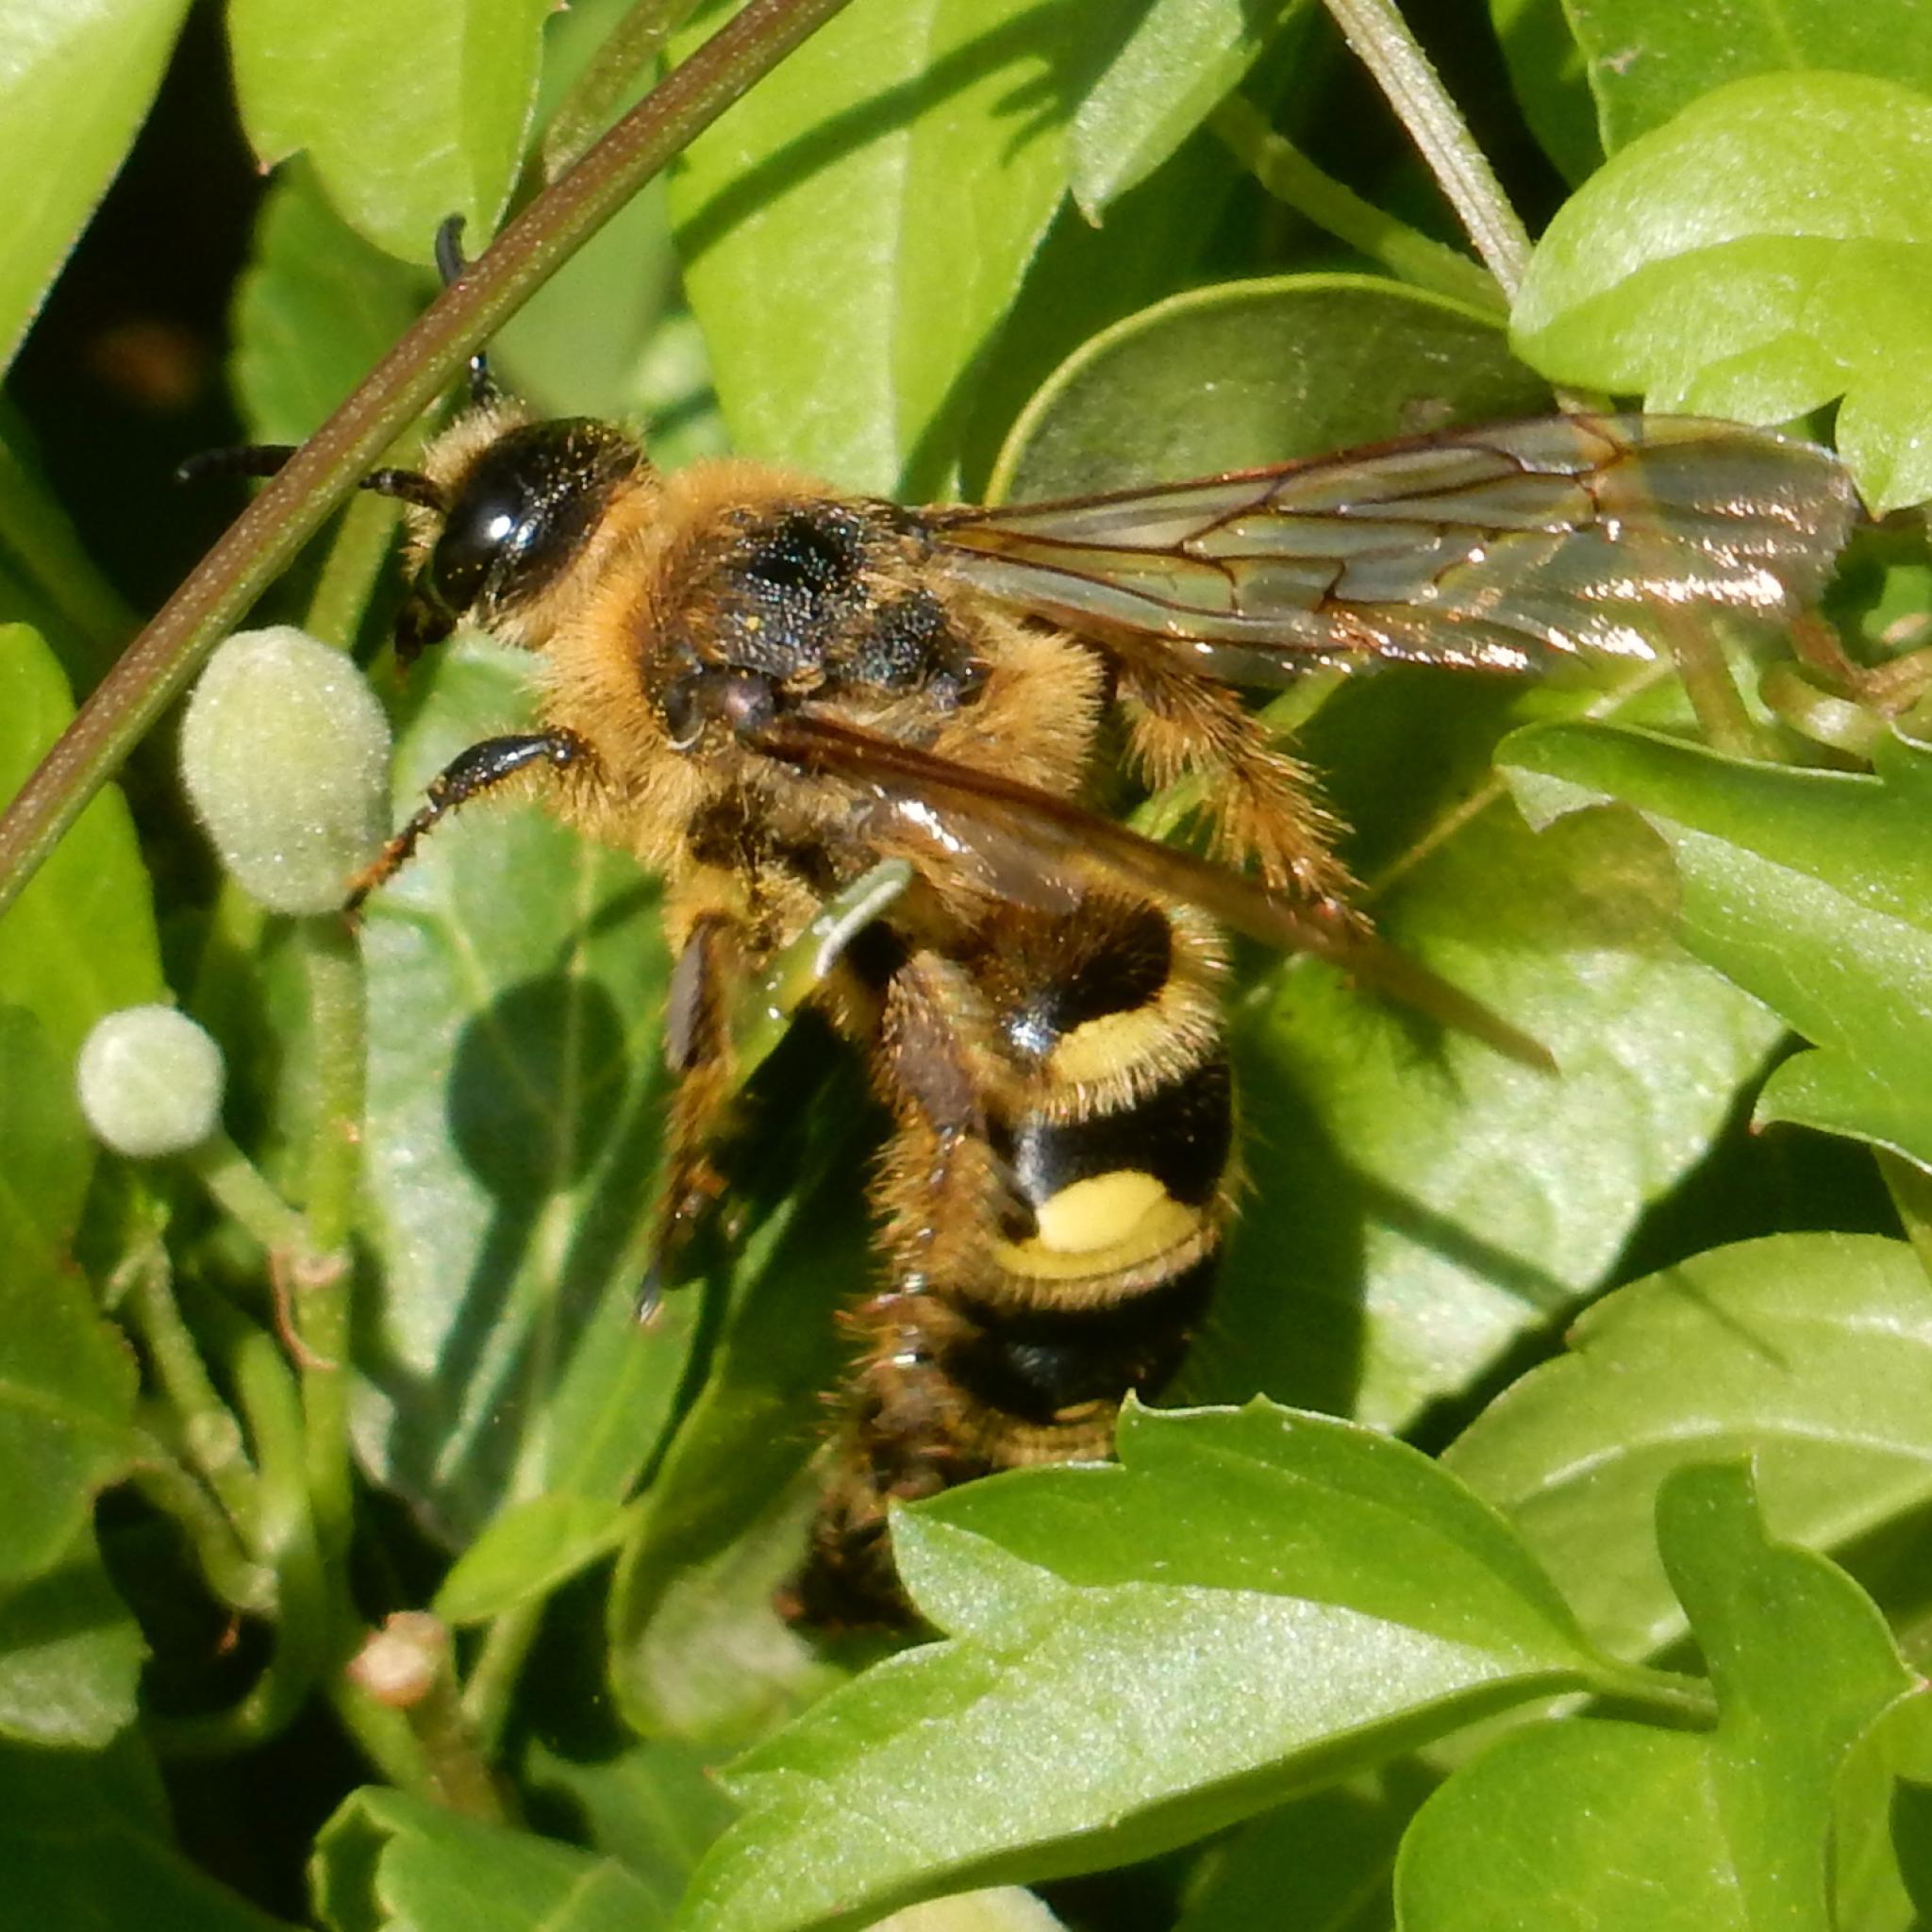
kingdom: Animalia
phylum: Arthropoda
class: Insecta
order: Hymenoptera
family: Scoliidae
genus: Leomeris
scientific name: Leomeris
